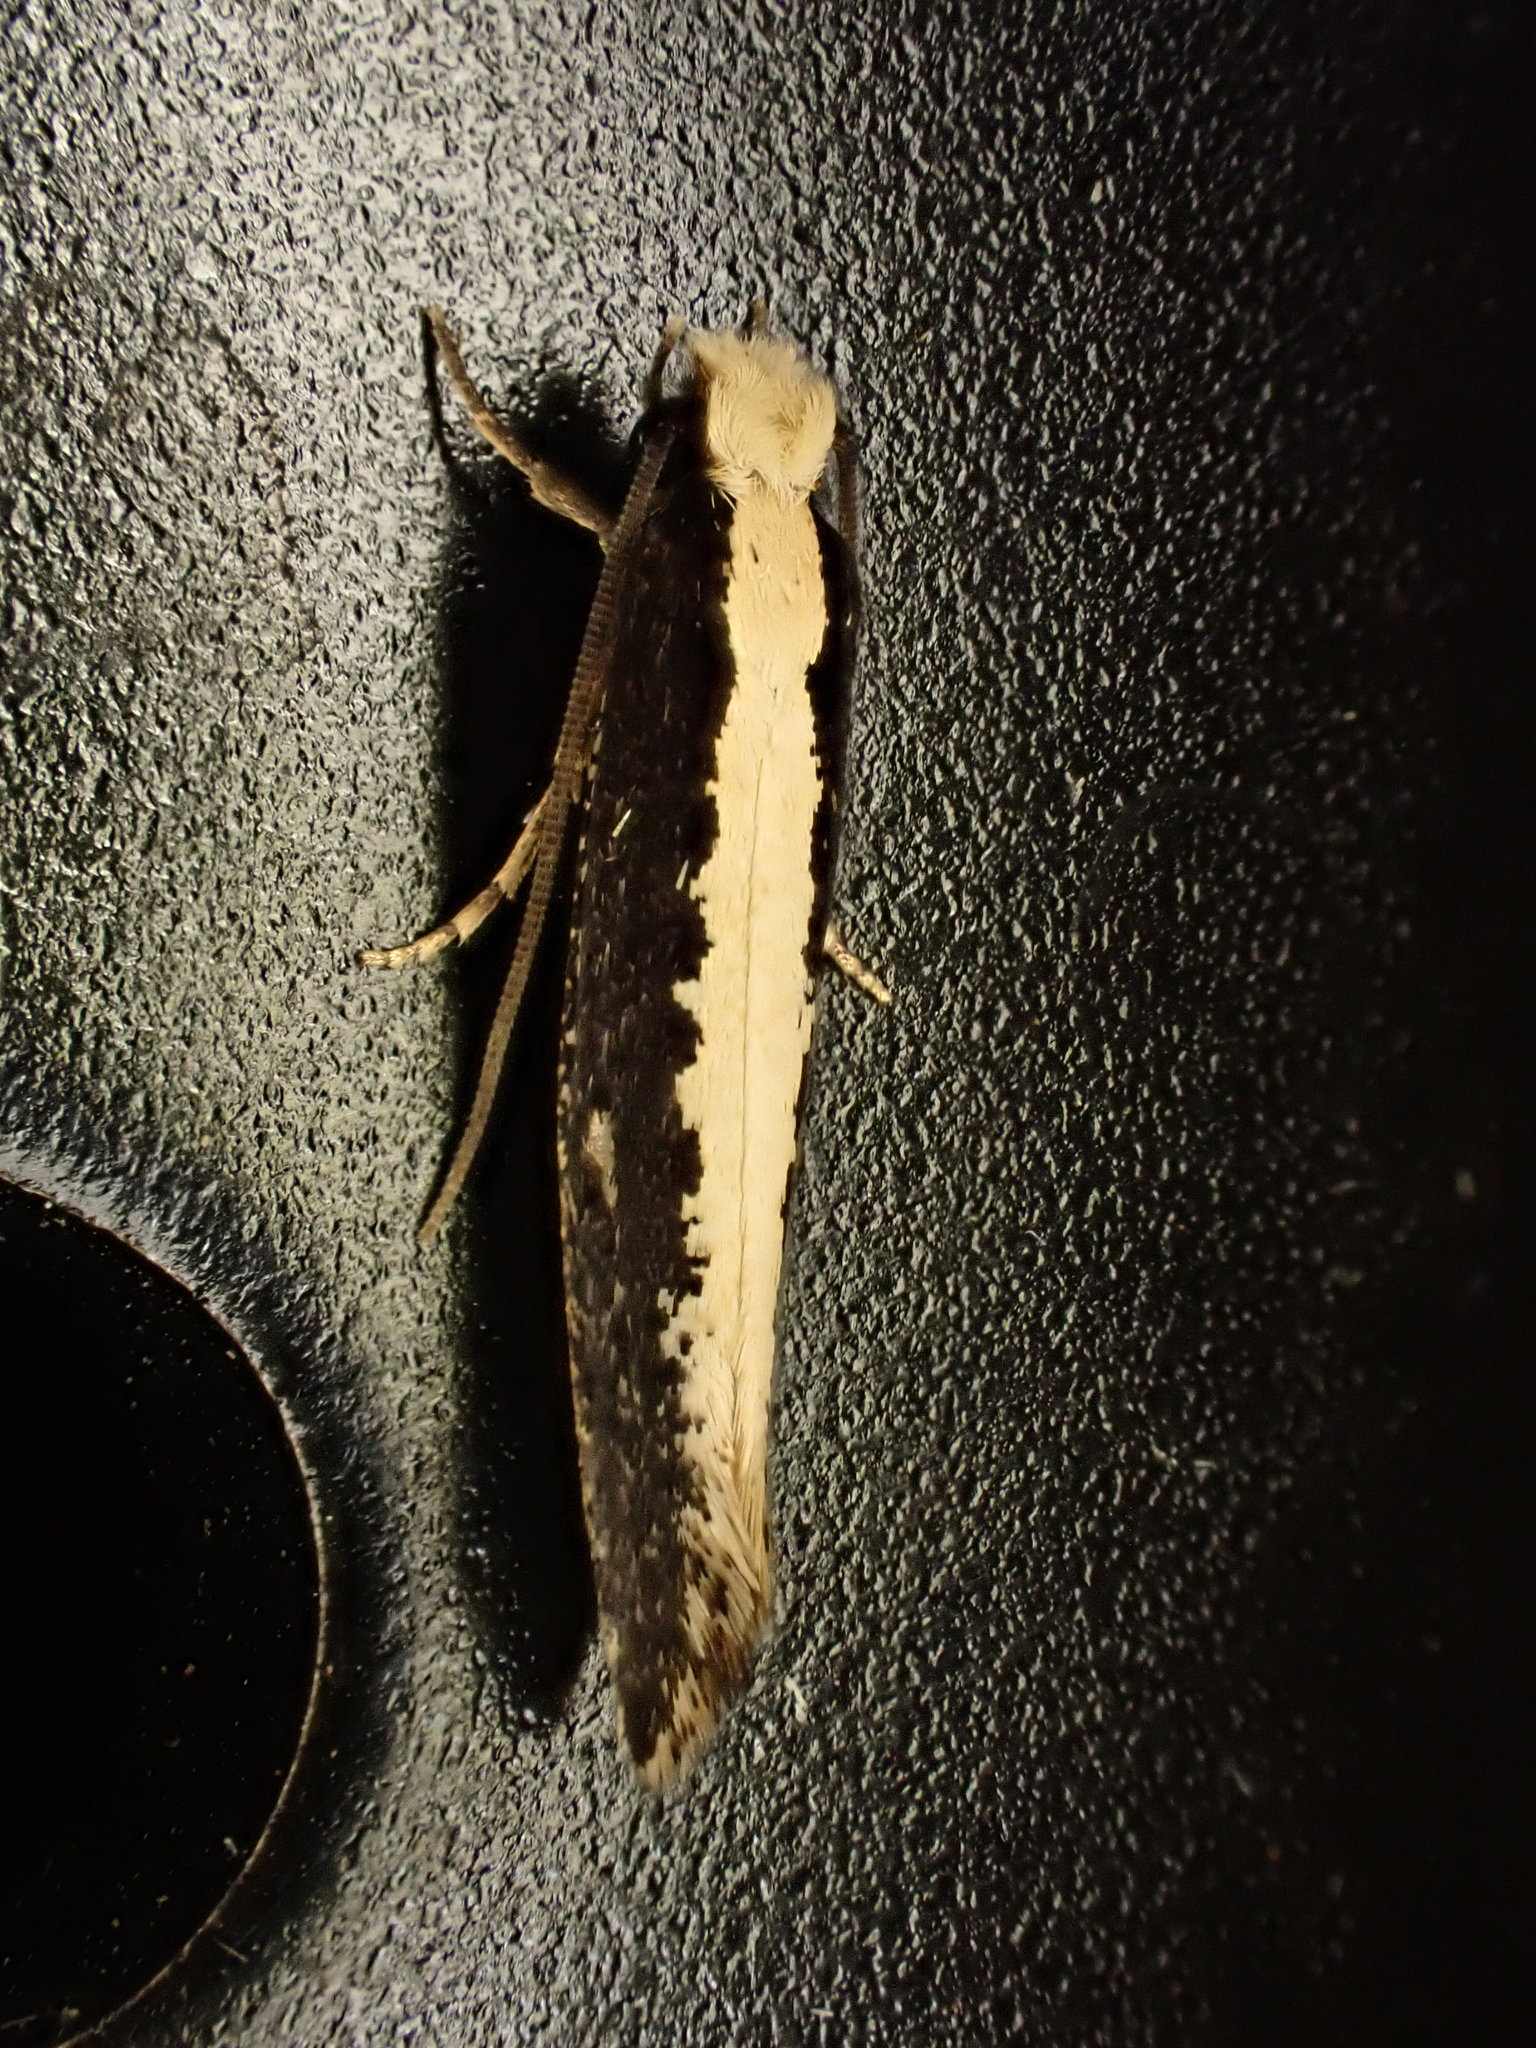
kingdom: Animalia
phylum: Arthropoda
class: Insecta
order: Lepidoptera
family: Tineidae
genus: Monopis
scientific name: Monopis ethelella
